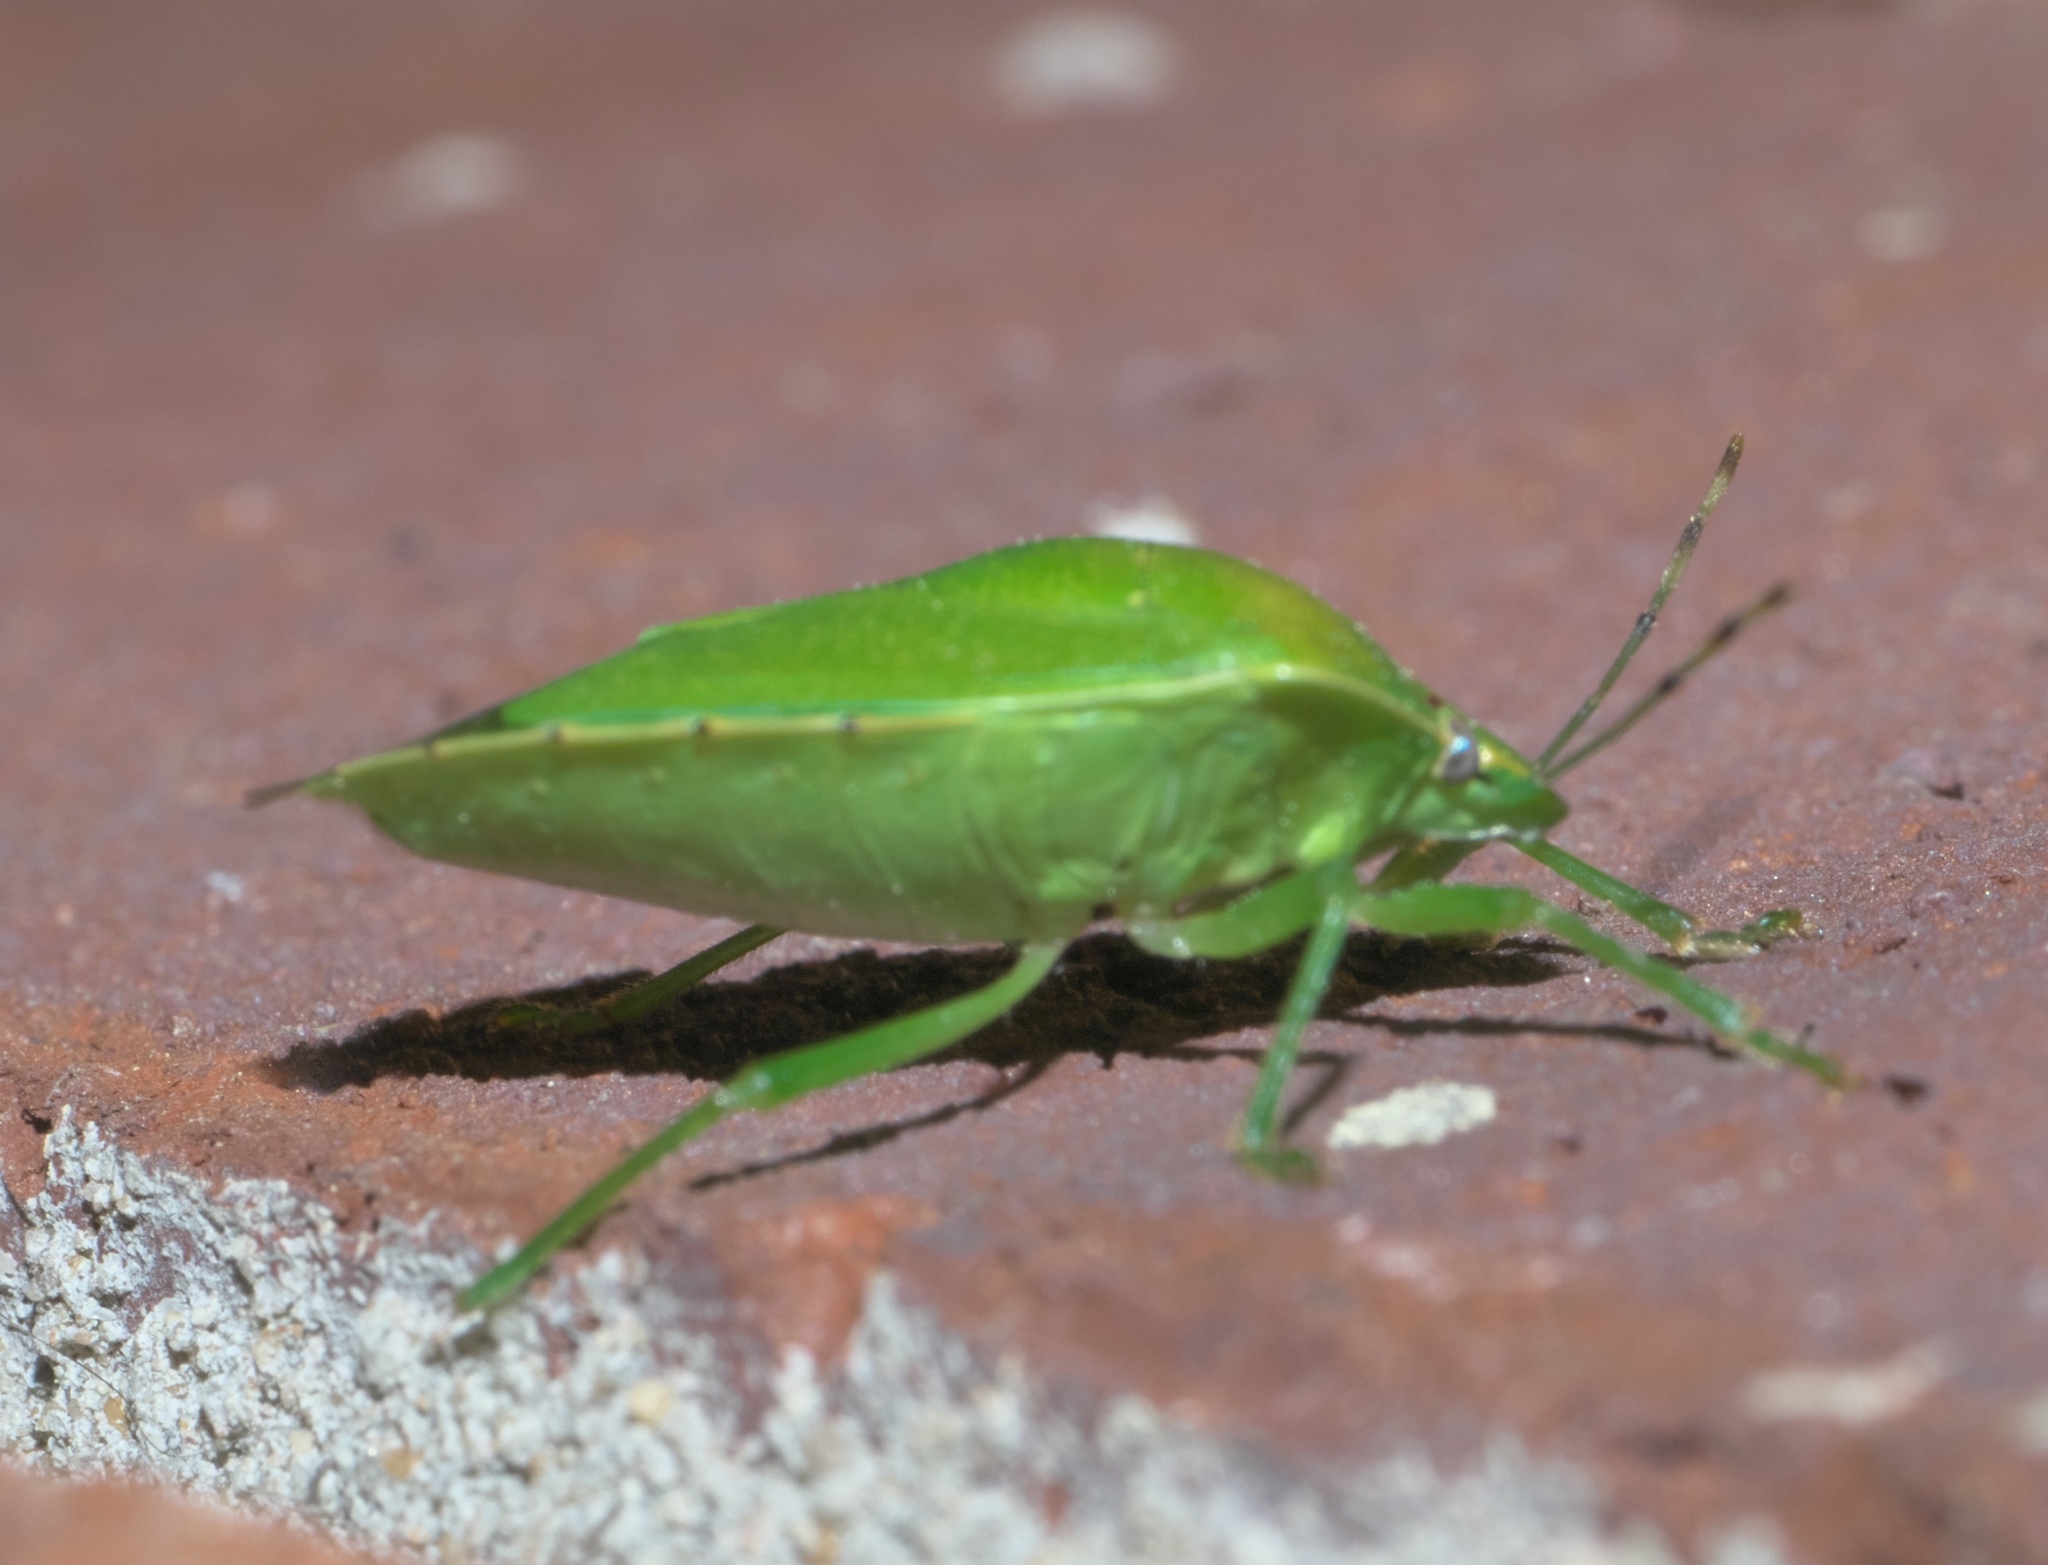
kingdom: Animalia
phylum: Arthropoda
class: Insecta
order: Hemiptera
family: Pentatomidae
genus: Chinavia
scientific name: Chinavia hilaris
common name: Green stink bug
